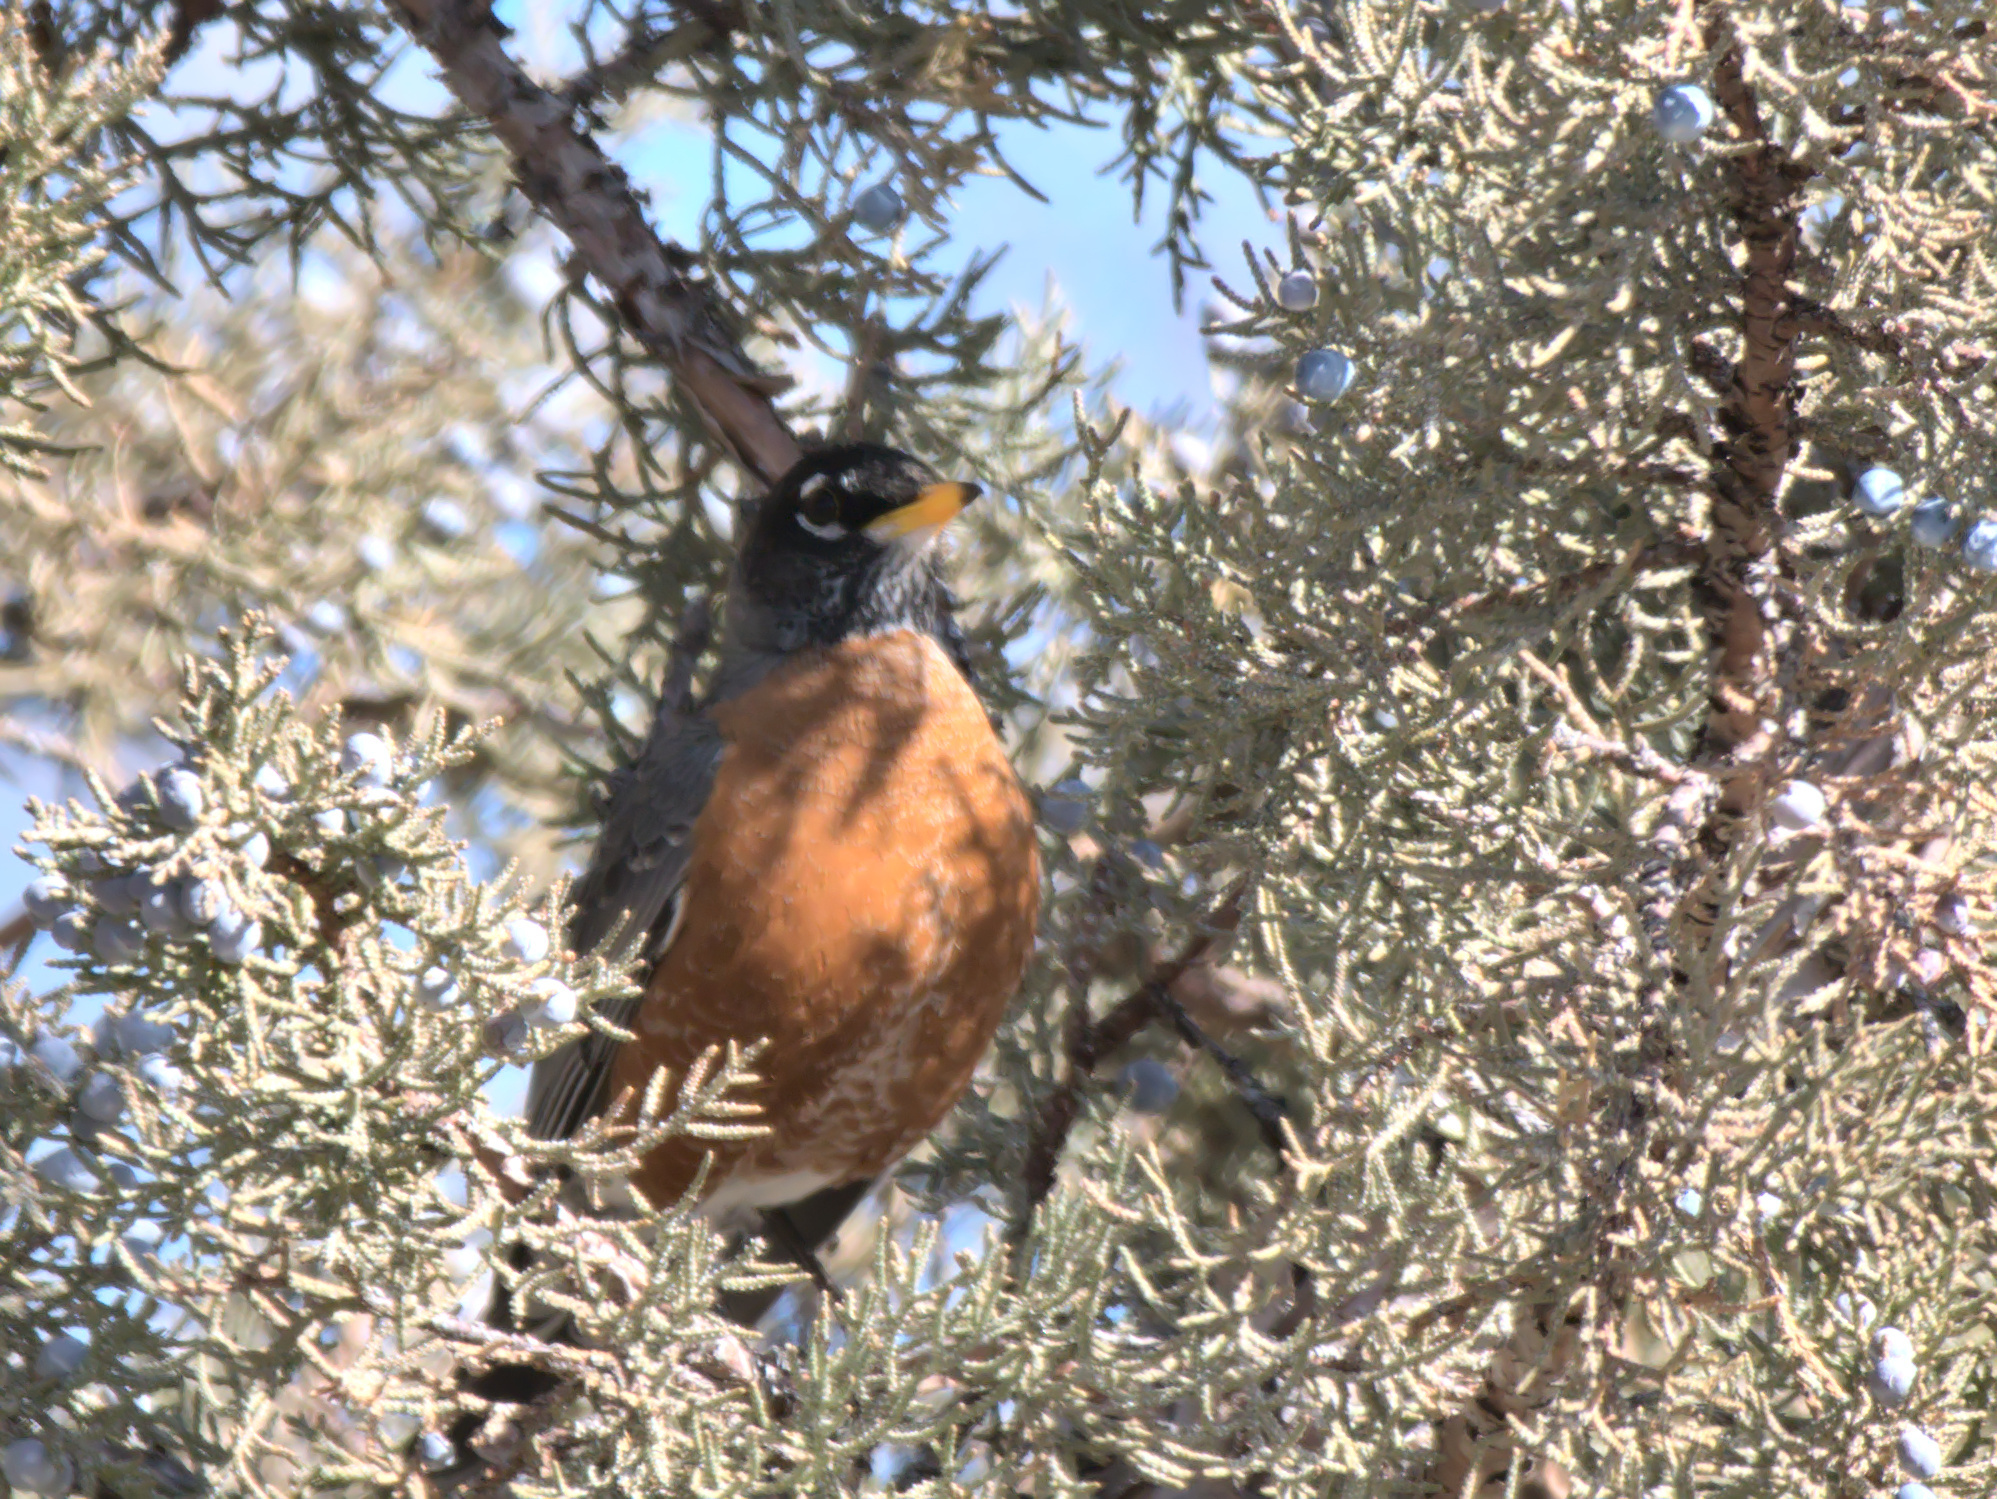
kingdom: Animalia
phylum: Chordata
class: Aves
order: Passeriformes
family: Turdidae
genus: Turdus
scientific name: Turdus migratorius
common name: American robin
